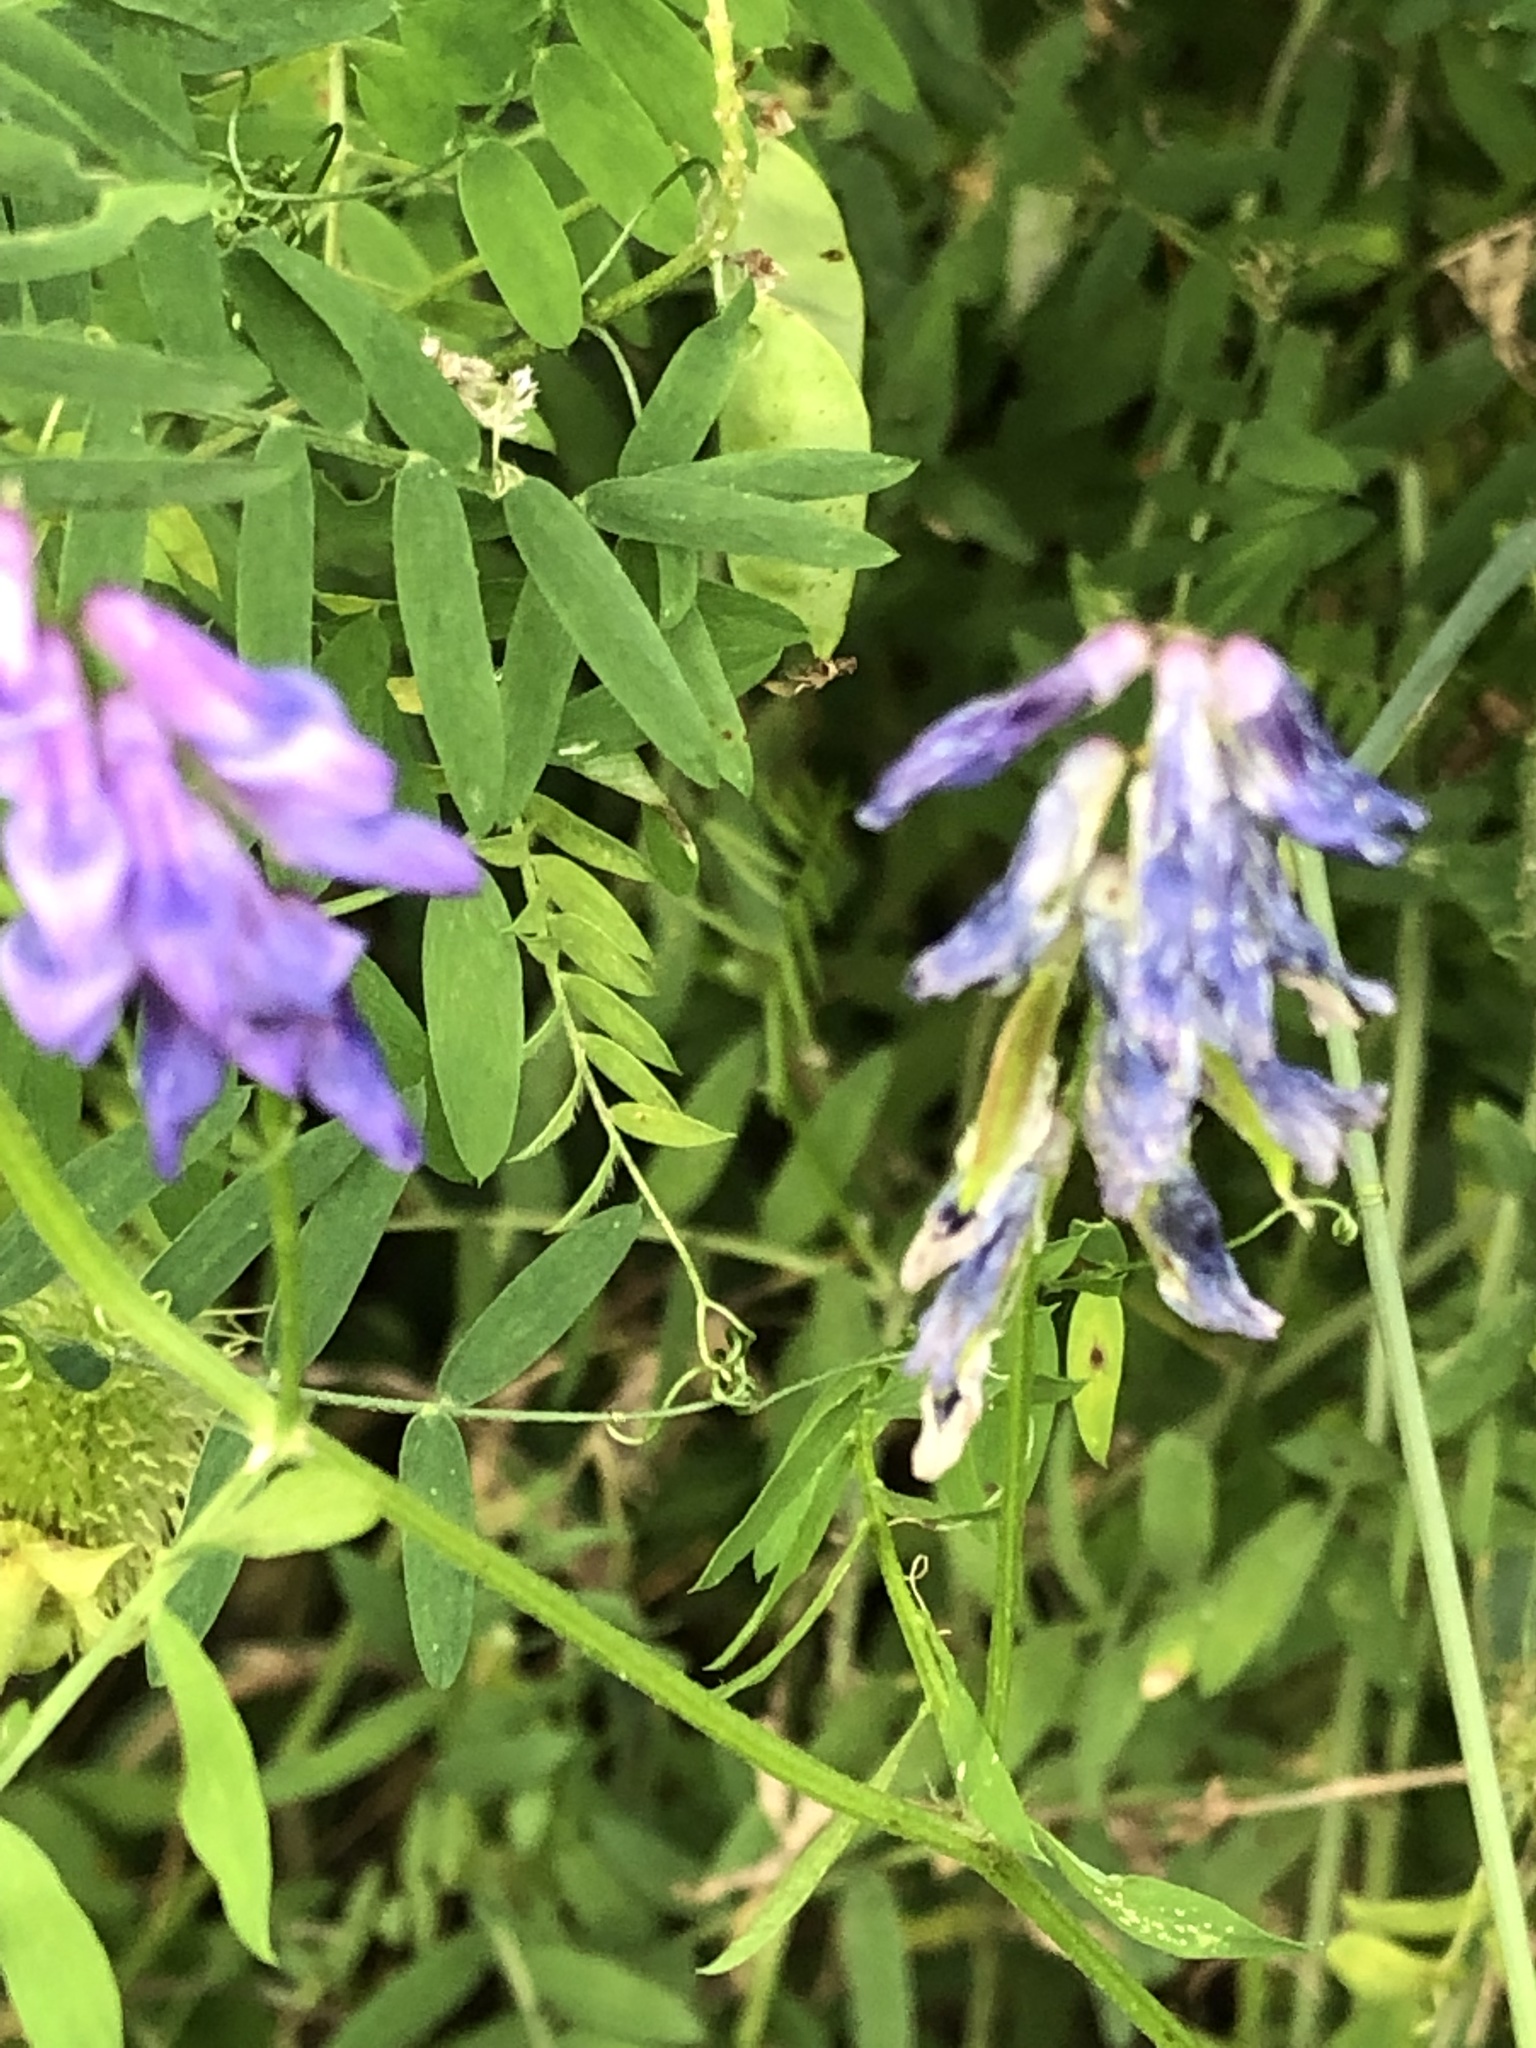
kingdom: Plantae
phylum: Tracheophyta
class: Magnoliopsida
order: Fabales
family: Fabaceae
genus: Vicia
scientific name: Vicia cracca
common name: Bird vetch
